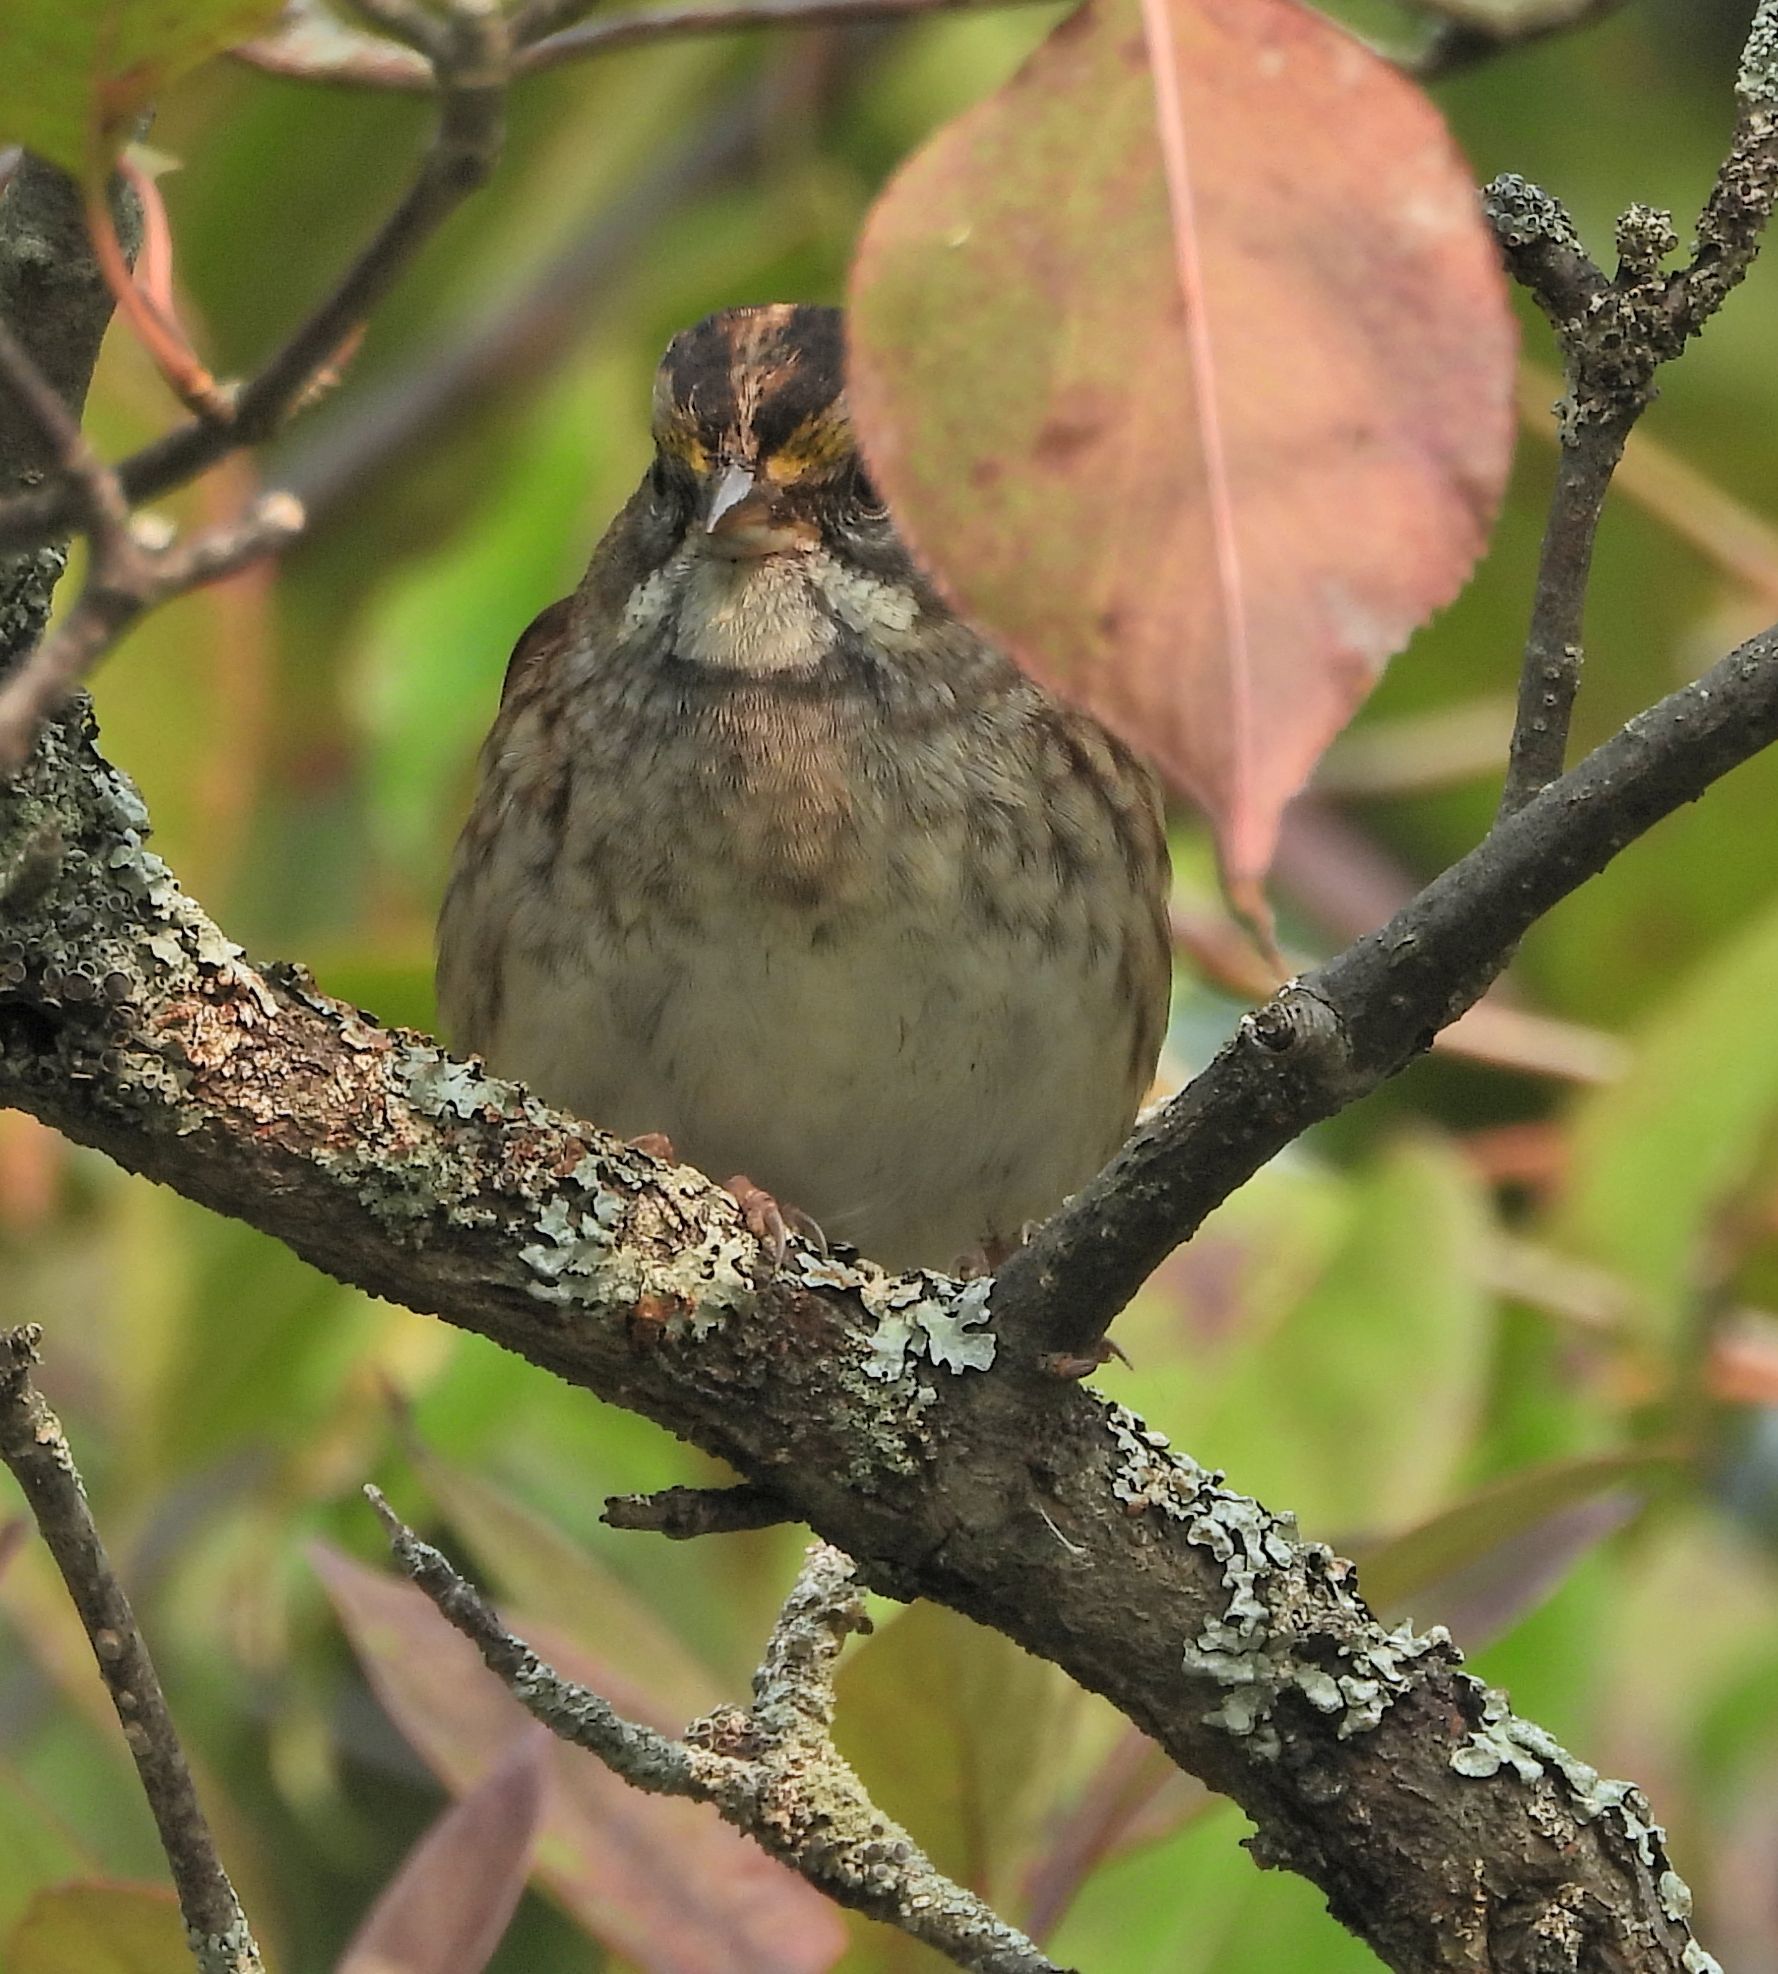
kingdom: Animalia
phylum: Chordata
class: Aves
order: Passeriformes
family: Passerellidae
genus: Zonotrichia
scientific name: Zonotrichia albicollis
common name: White-throated sparrow
